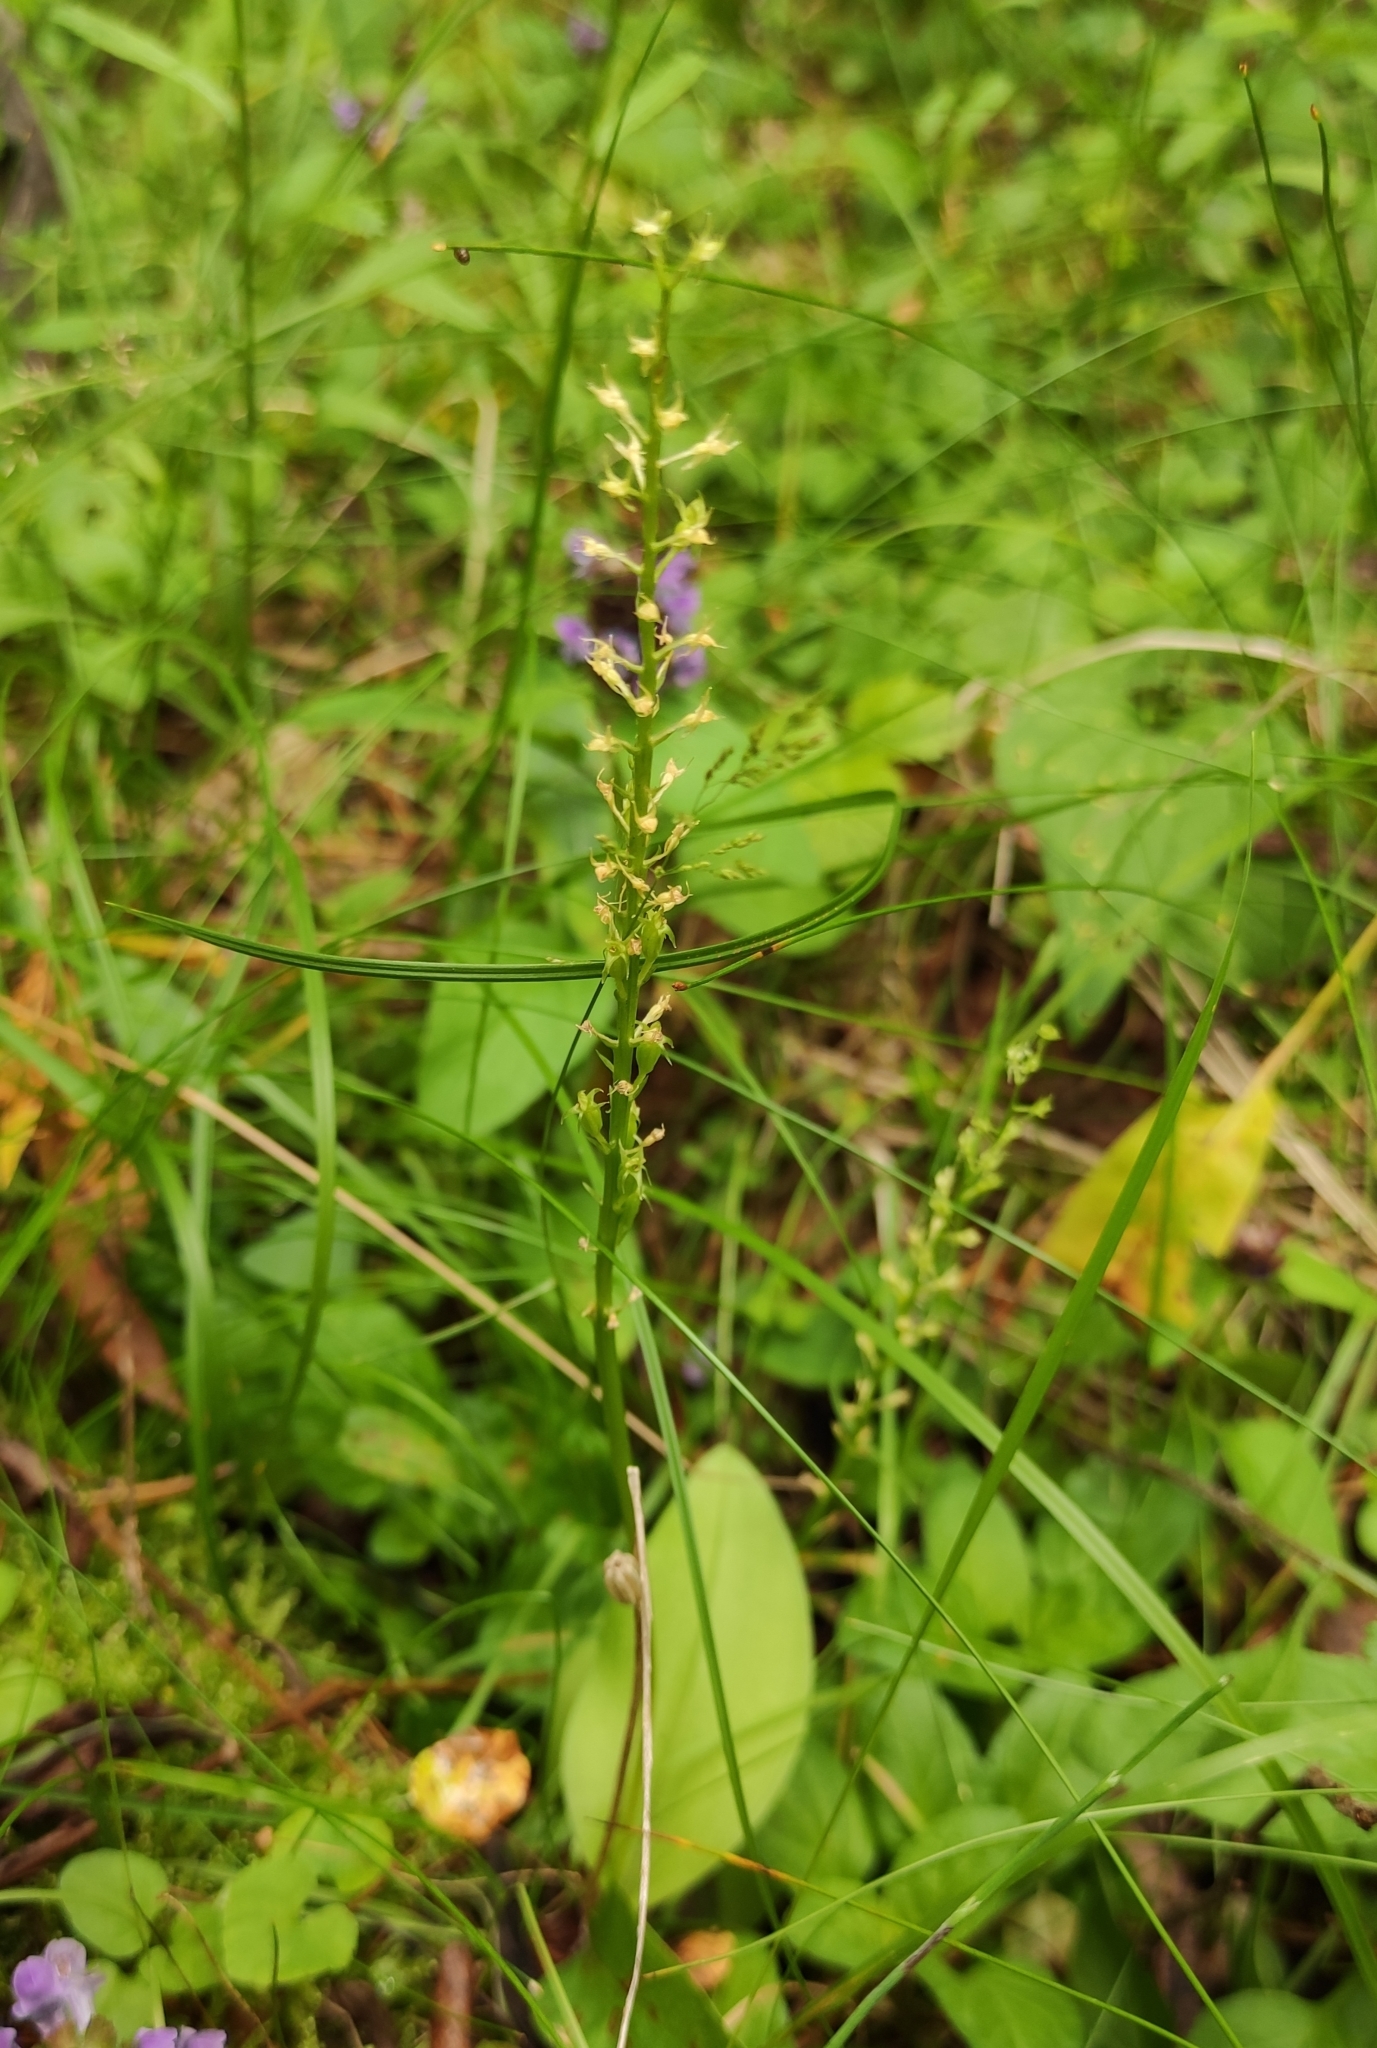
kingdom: Plantae
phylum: Tracheophyta
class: Liliopsida
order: Asparagales
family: Orchidaceae
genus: Malaxis
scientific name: Malaxis monophyllos
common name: White adder's-mouth
